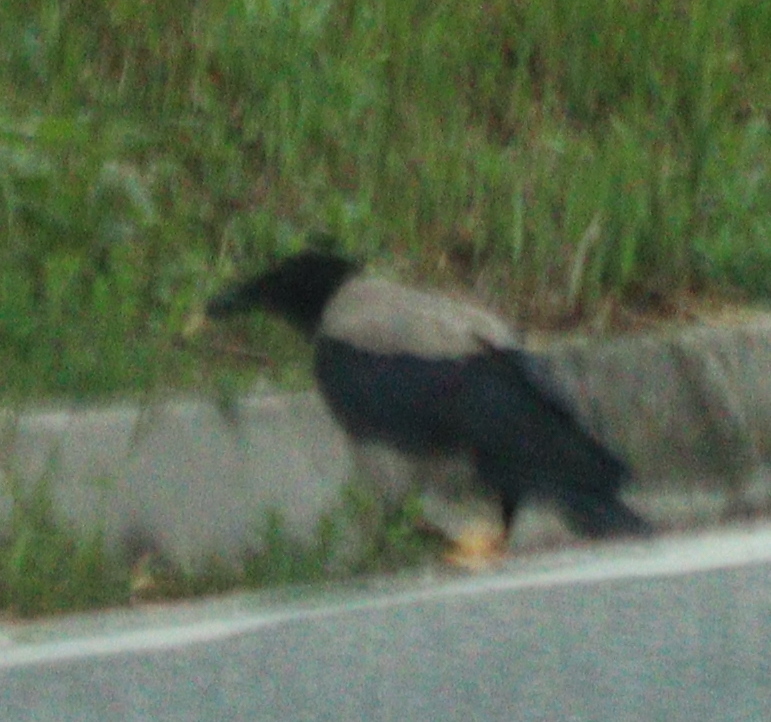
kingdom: Animalia
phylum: Chordata
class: Aves
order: Passeriformes
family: Corvidae
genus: Corvus
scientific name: Corvus cornix
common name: Hooded crow
